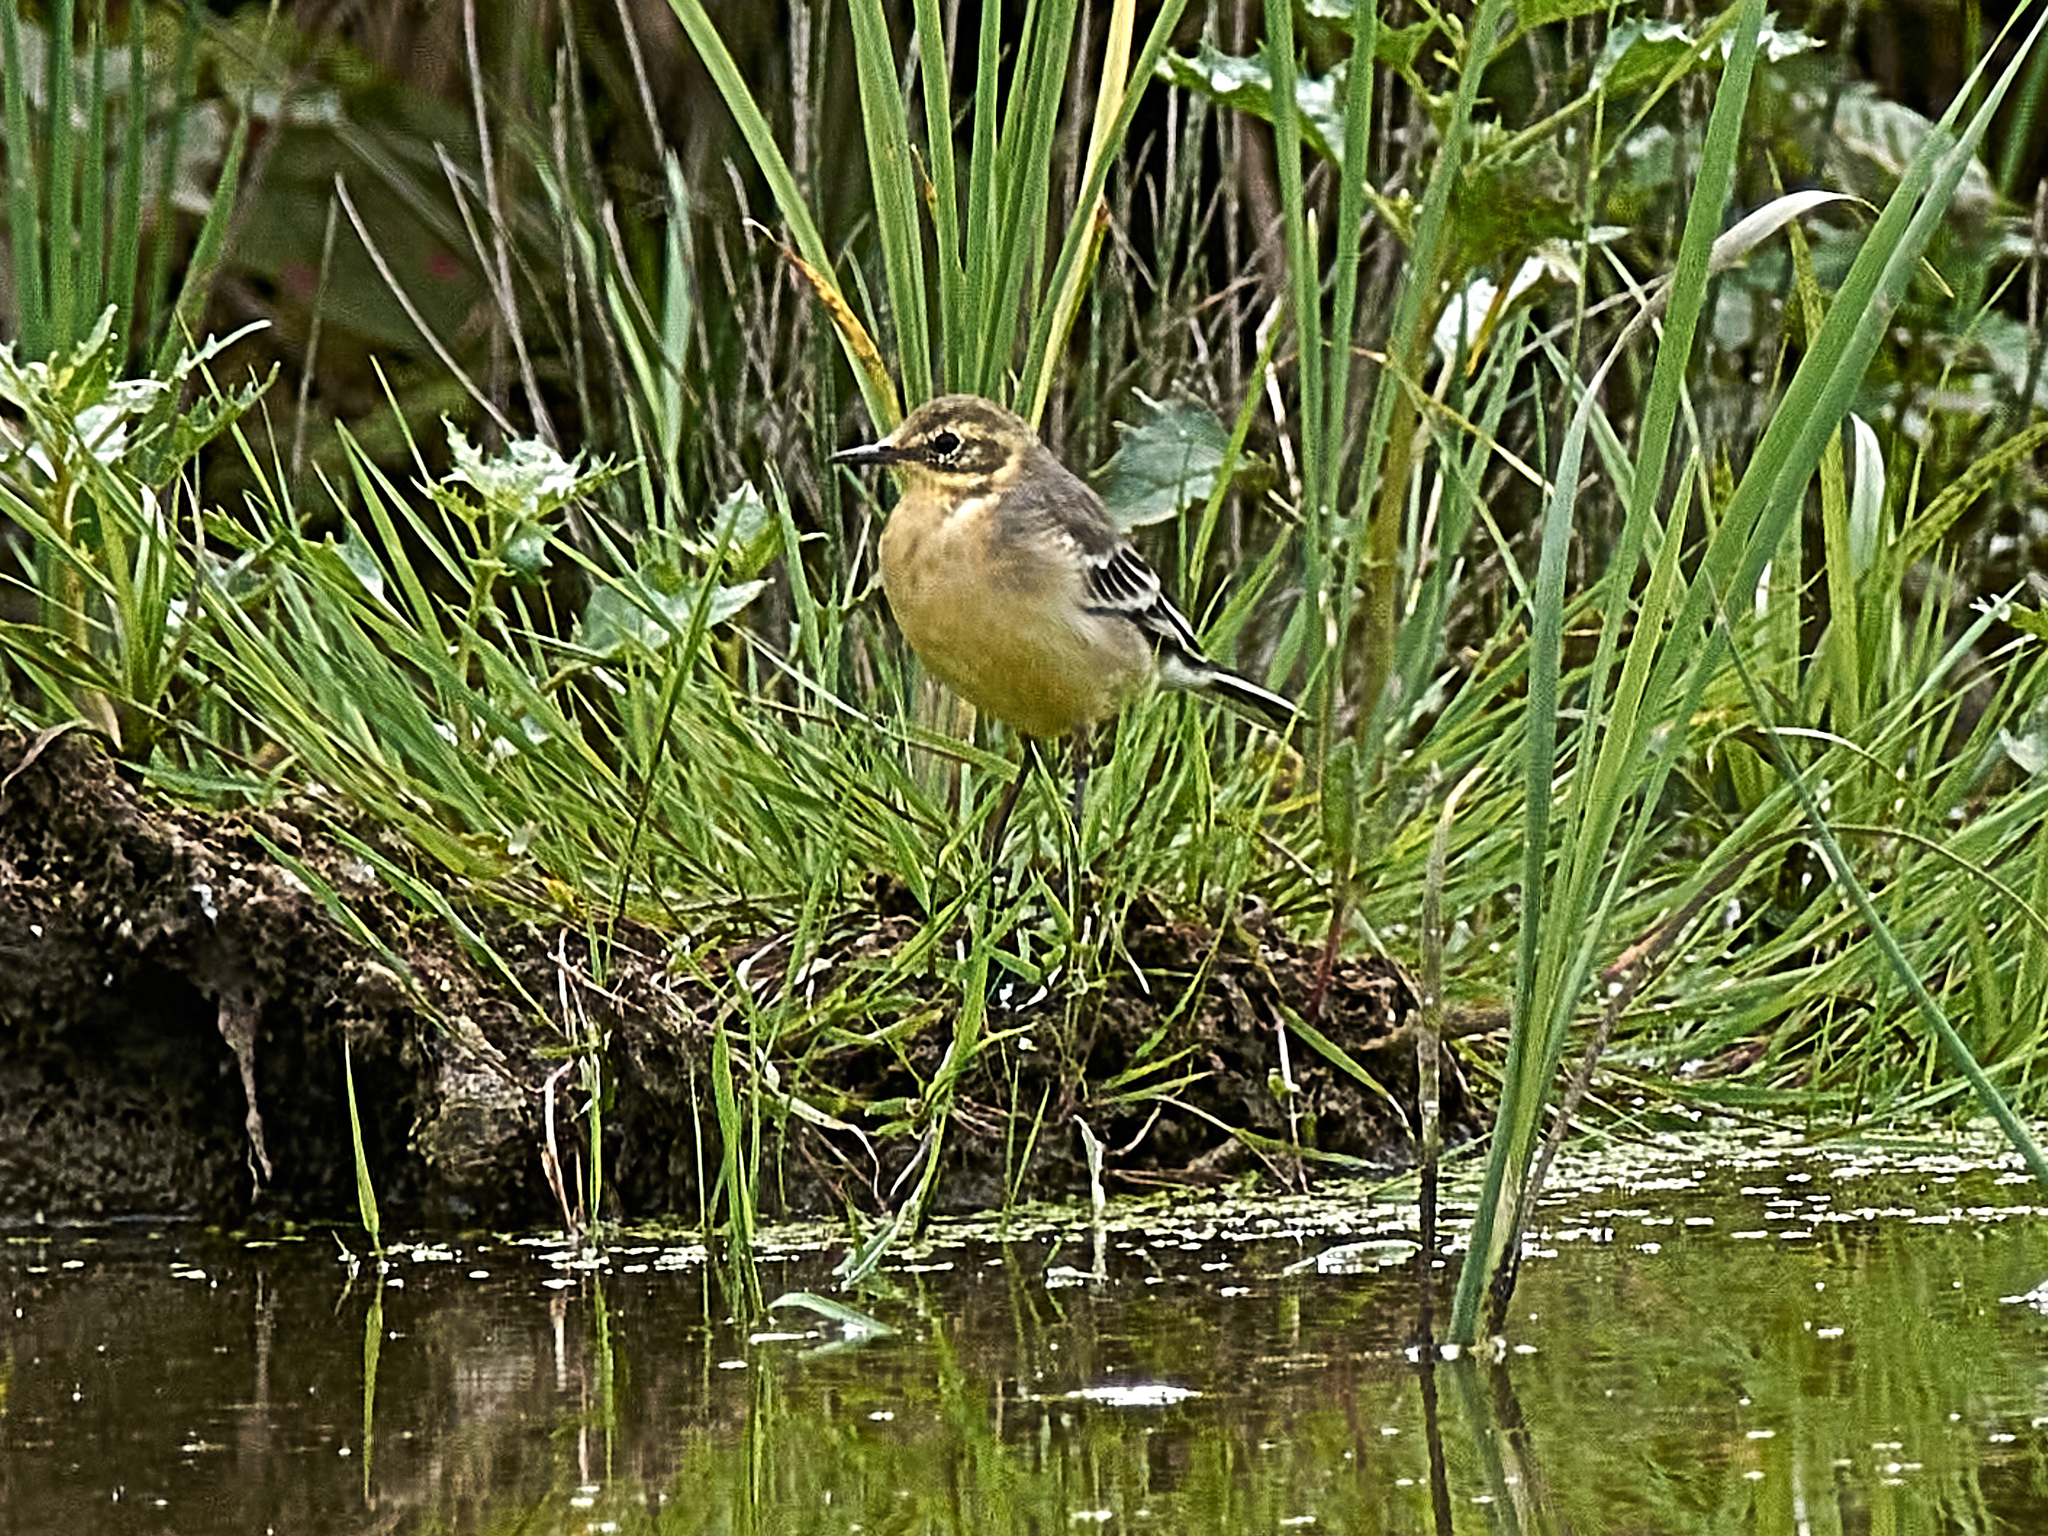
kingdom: Animalia
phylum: Chordata
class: Aves
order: Passeriformes
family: Motacillidae
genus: Motacilla
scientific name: Motacilla citreola
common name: Citrine wagtail
